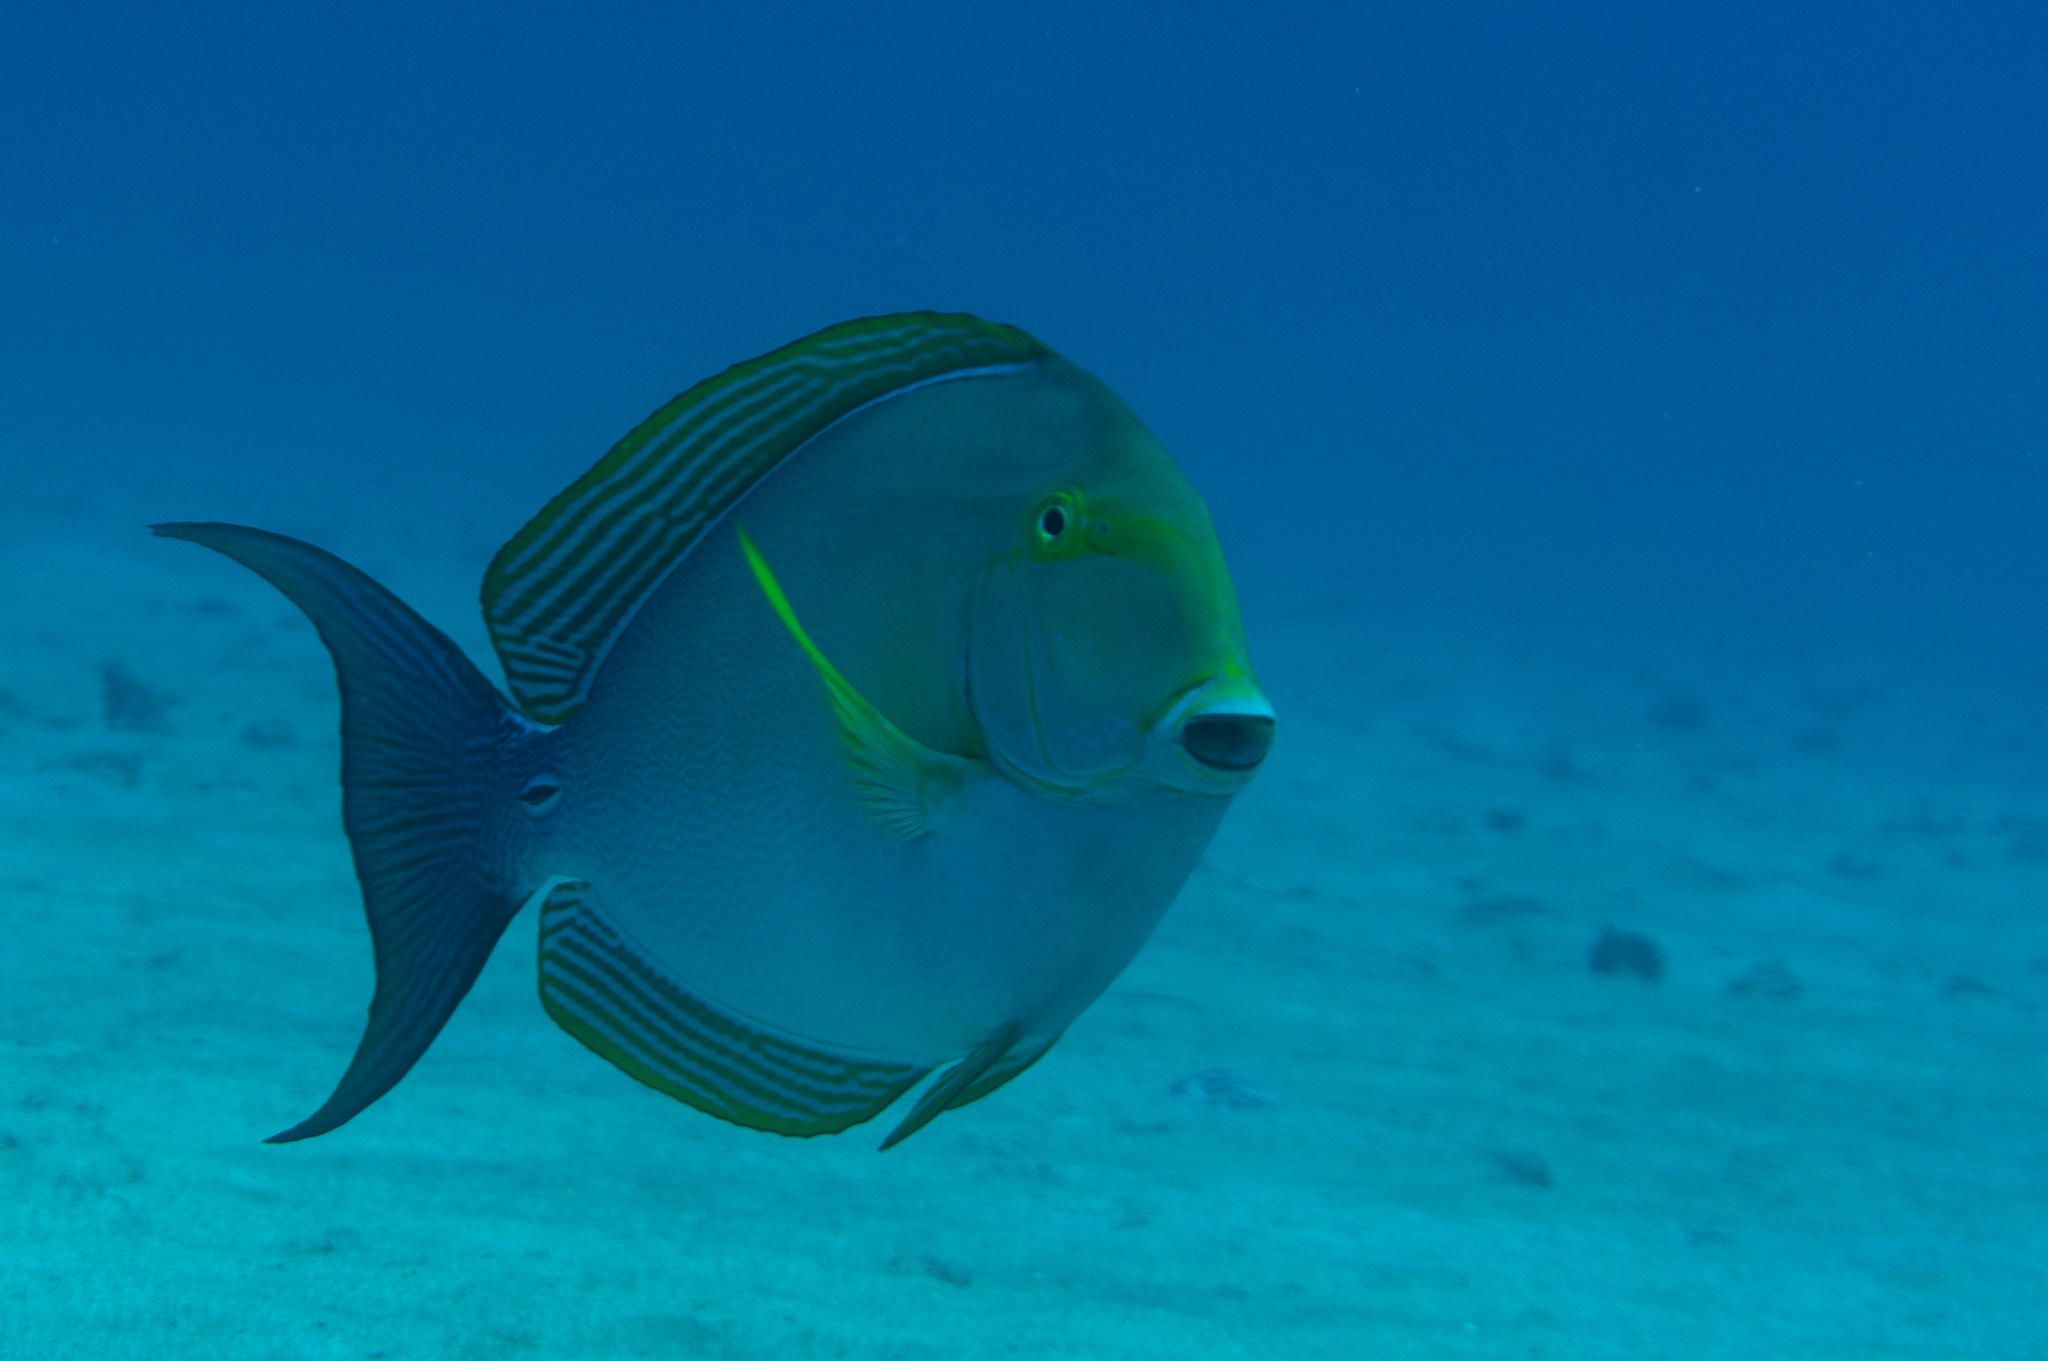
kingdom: Animalia
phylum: Chordata
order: Perciformes
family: Acanthuridae
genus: Acanthurus
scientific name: Acanthurus xanthopterus
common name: Cuvier's surgeonfish
